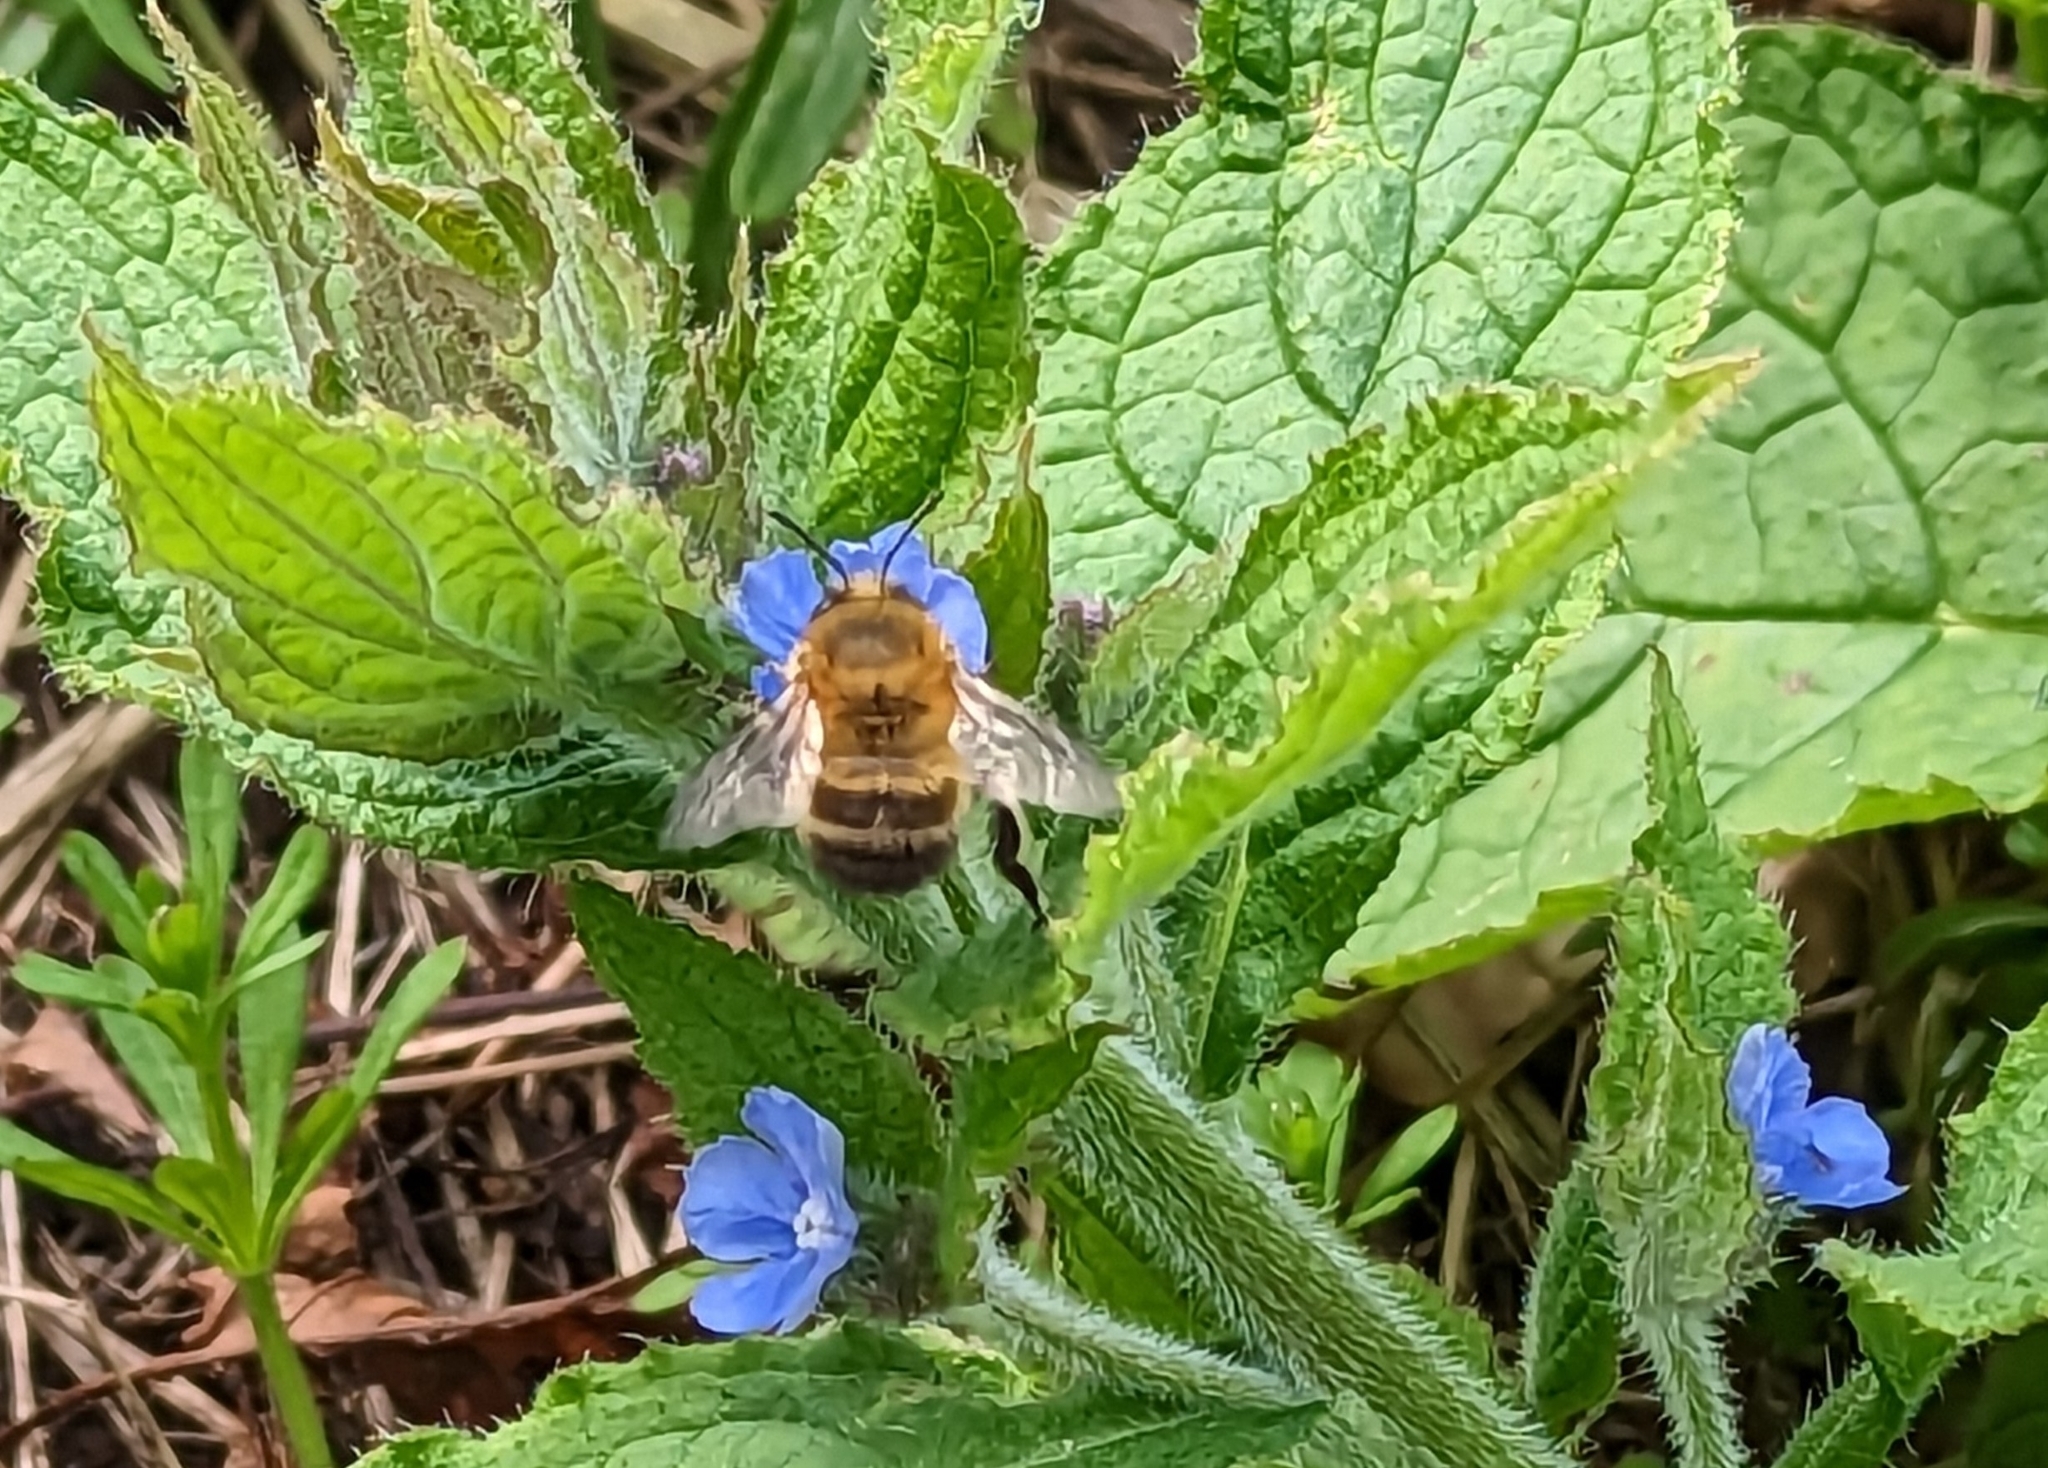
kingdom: Animalia
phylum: Arthropoda
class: Insecta
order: Hymenoptera
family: Apidae
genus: Anthophora
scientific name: Anthophora plumipes
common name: Hairy-footed flower bee
